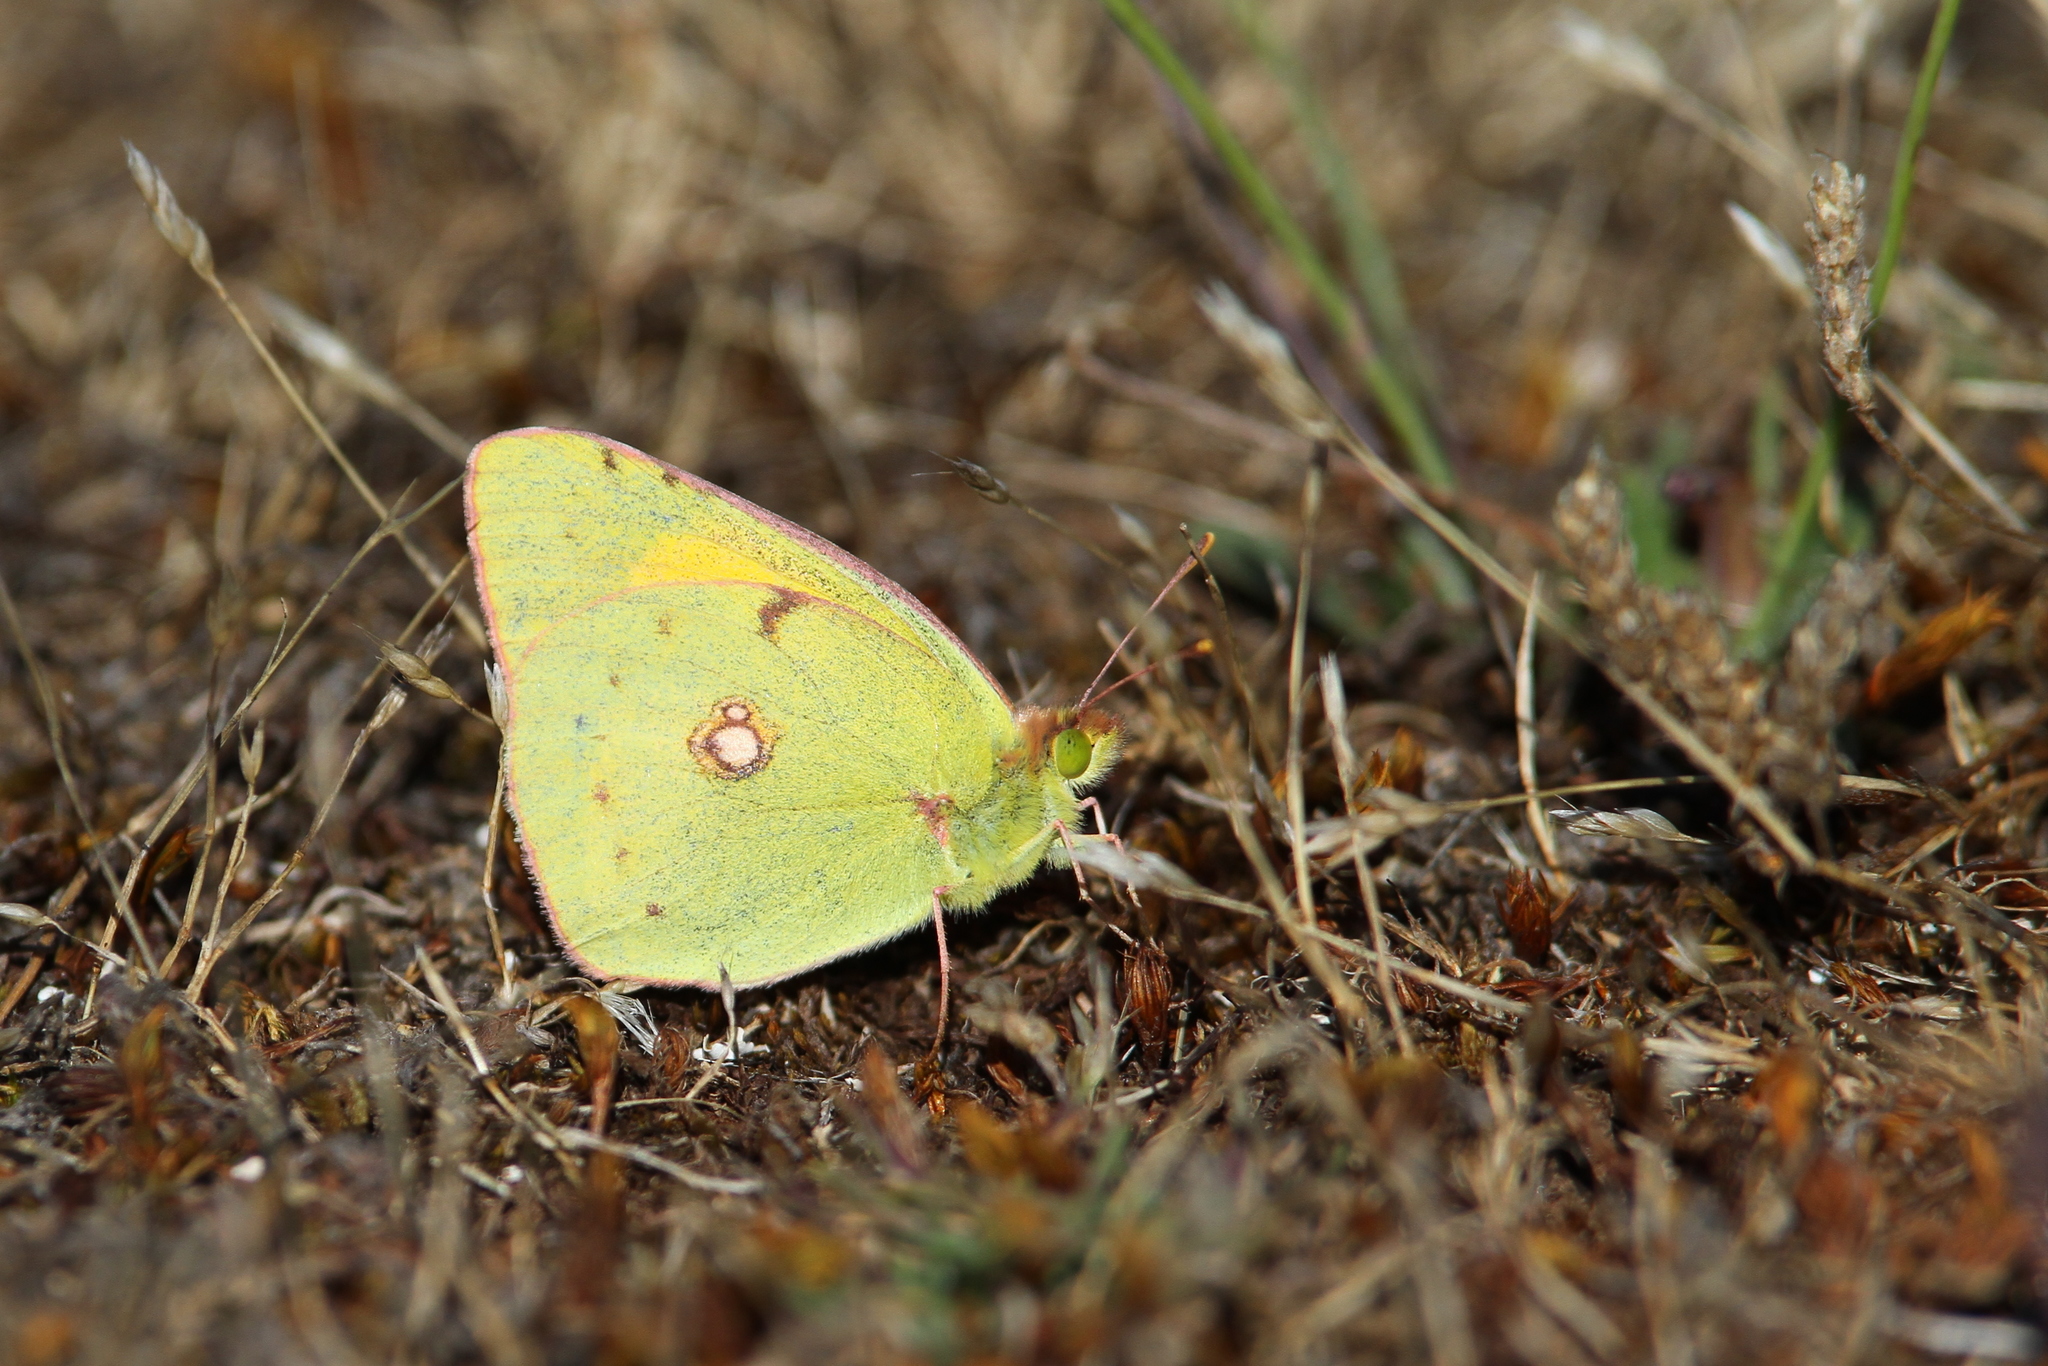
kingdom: Animalia
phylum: Arthropoda
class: Insecta
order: Lepidoptera
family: Pieridae
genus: Colias
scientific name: Colias croceus
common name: Clouded yellow
